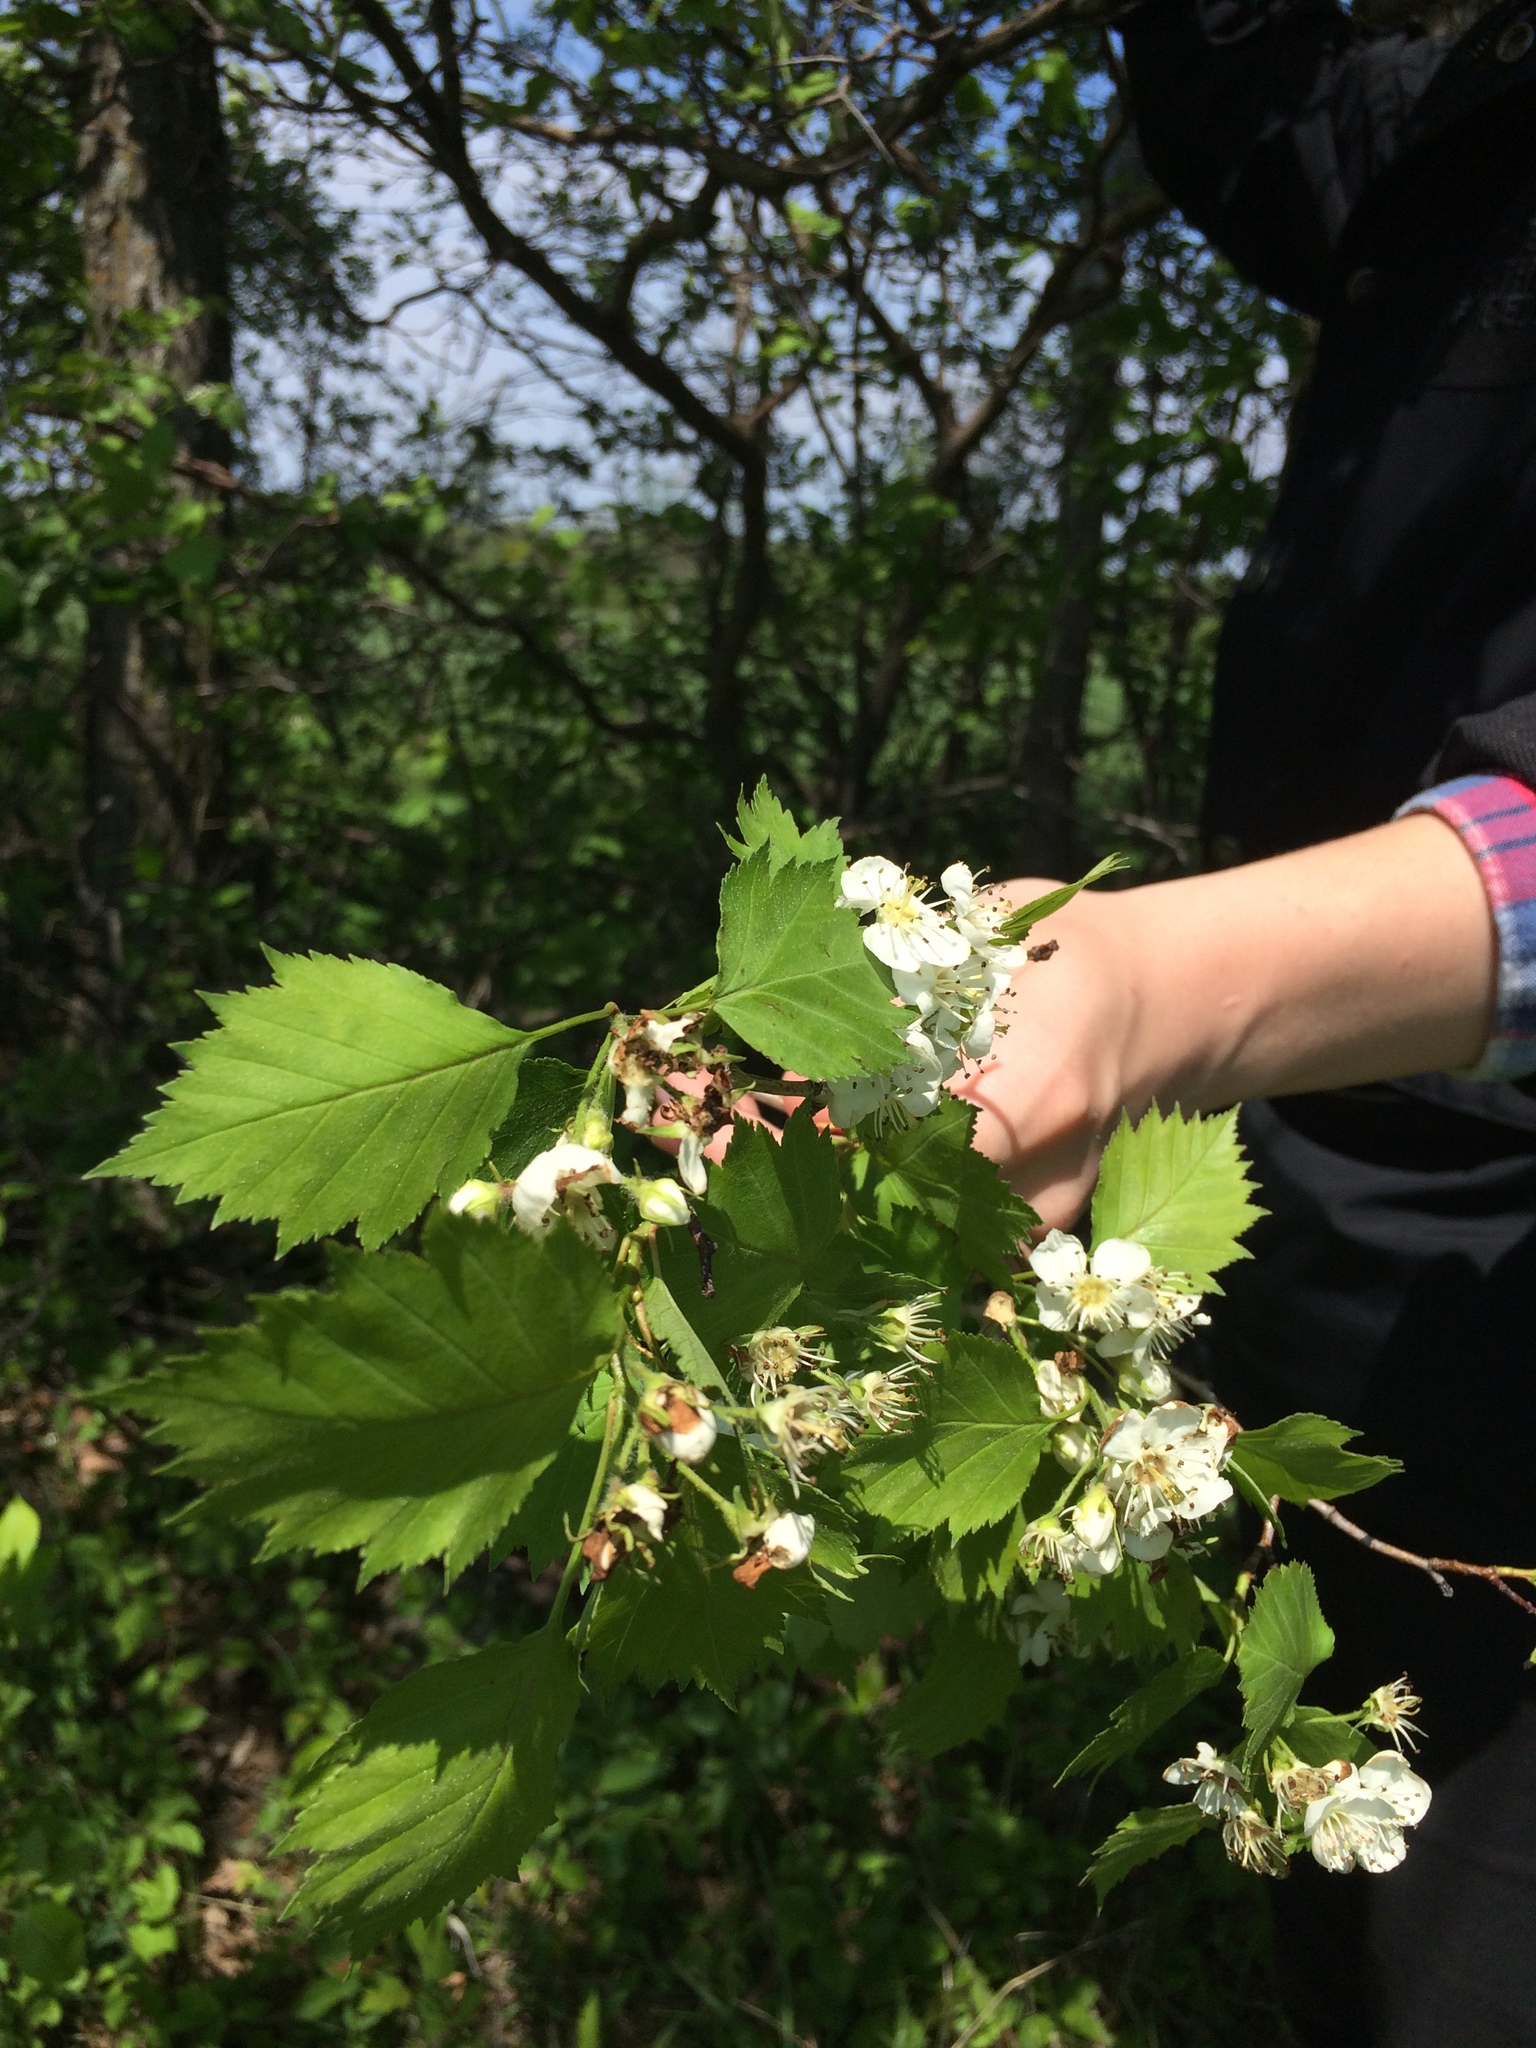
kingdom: Plantae
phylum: Tracheophyta
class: Magnoliopsida
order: Rosales
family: Rosaceae
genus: Crataegus
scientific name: Crataegus flabellata
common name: Bosc's hawthorn
